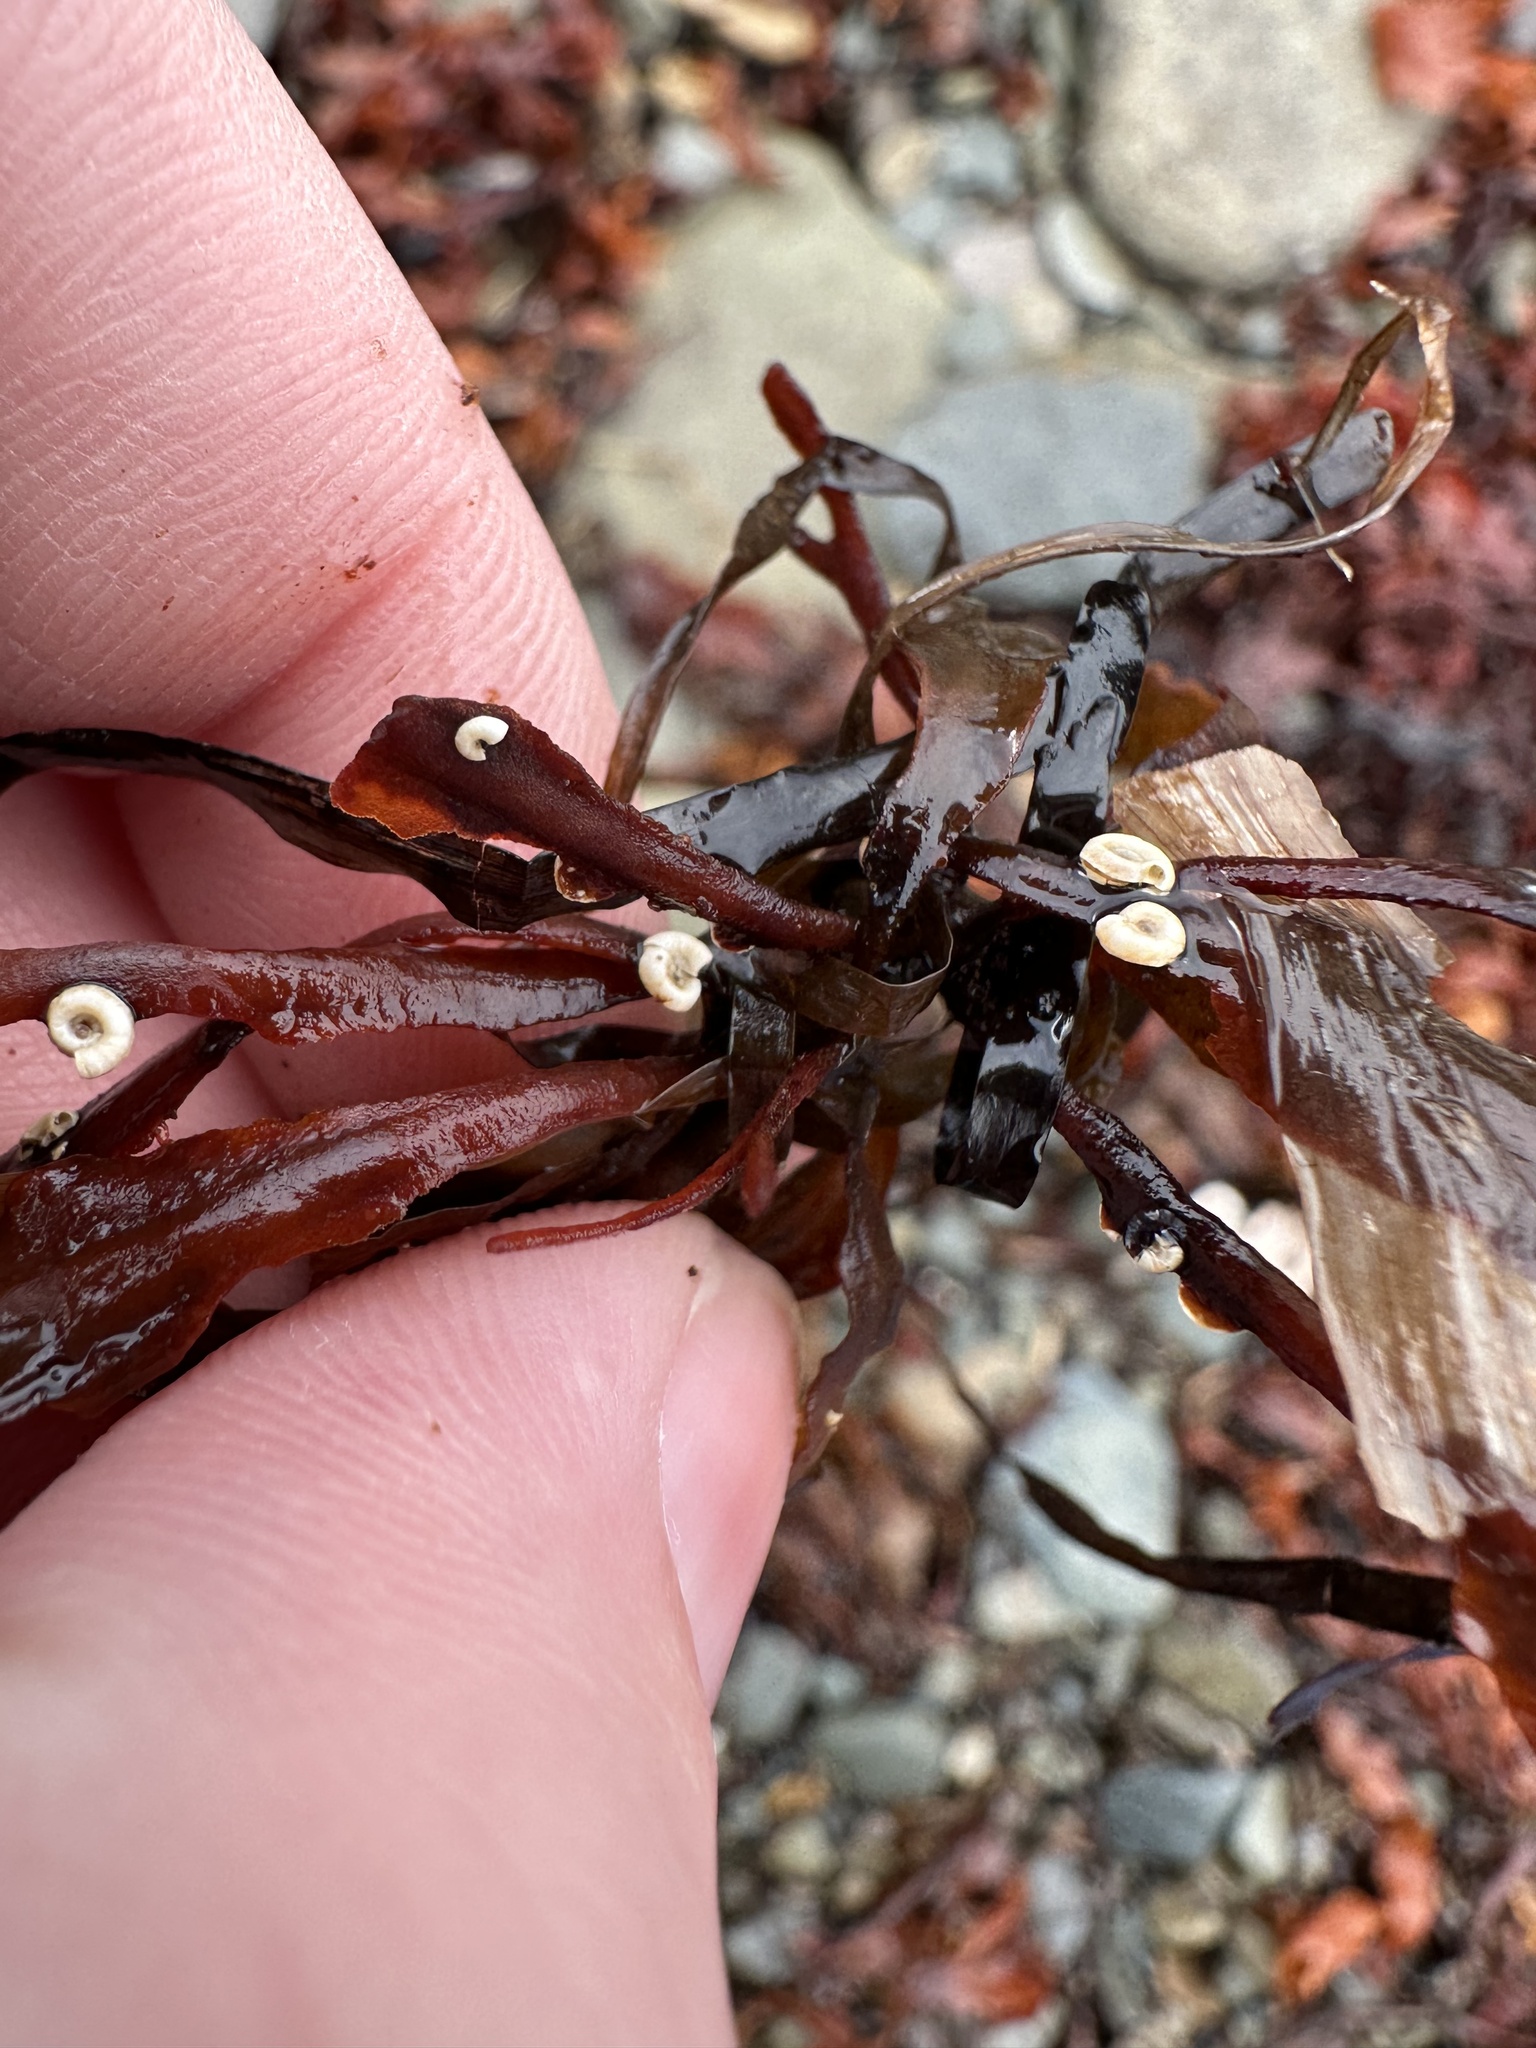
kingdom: Animalia
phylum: Annelida
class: Polychaeta
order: Sabellida
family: Serpulidae
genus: Spirorbis
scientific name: Spirorbis spirorbis
